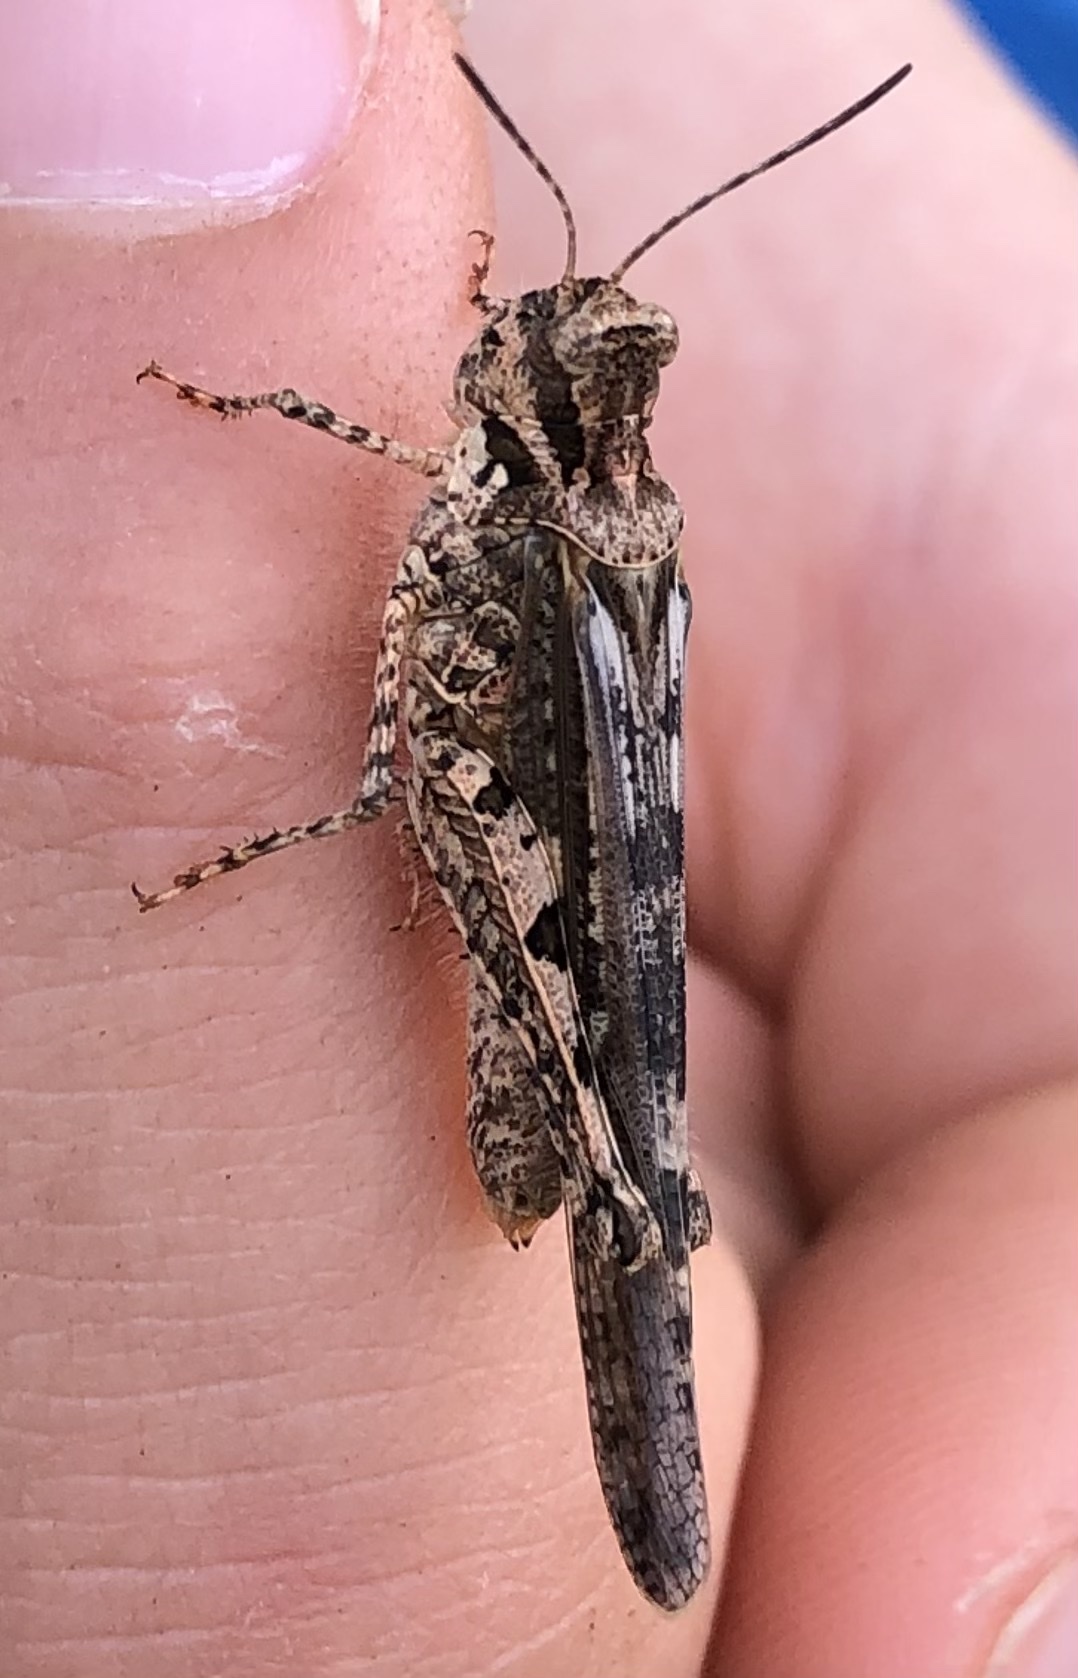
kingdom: Animalia
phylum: Arthropoda
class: Insecta
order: Orthoptera
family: Acrididae
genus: Acrotylus
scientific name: Acrotylus patruelis
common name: Slender burrowing grasshopper
